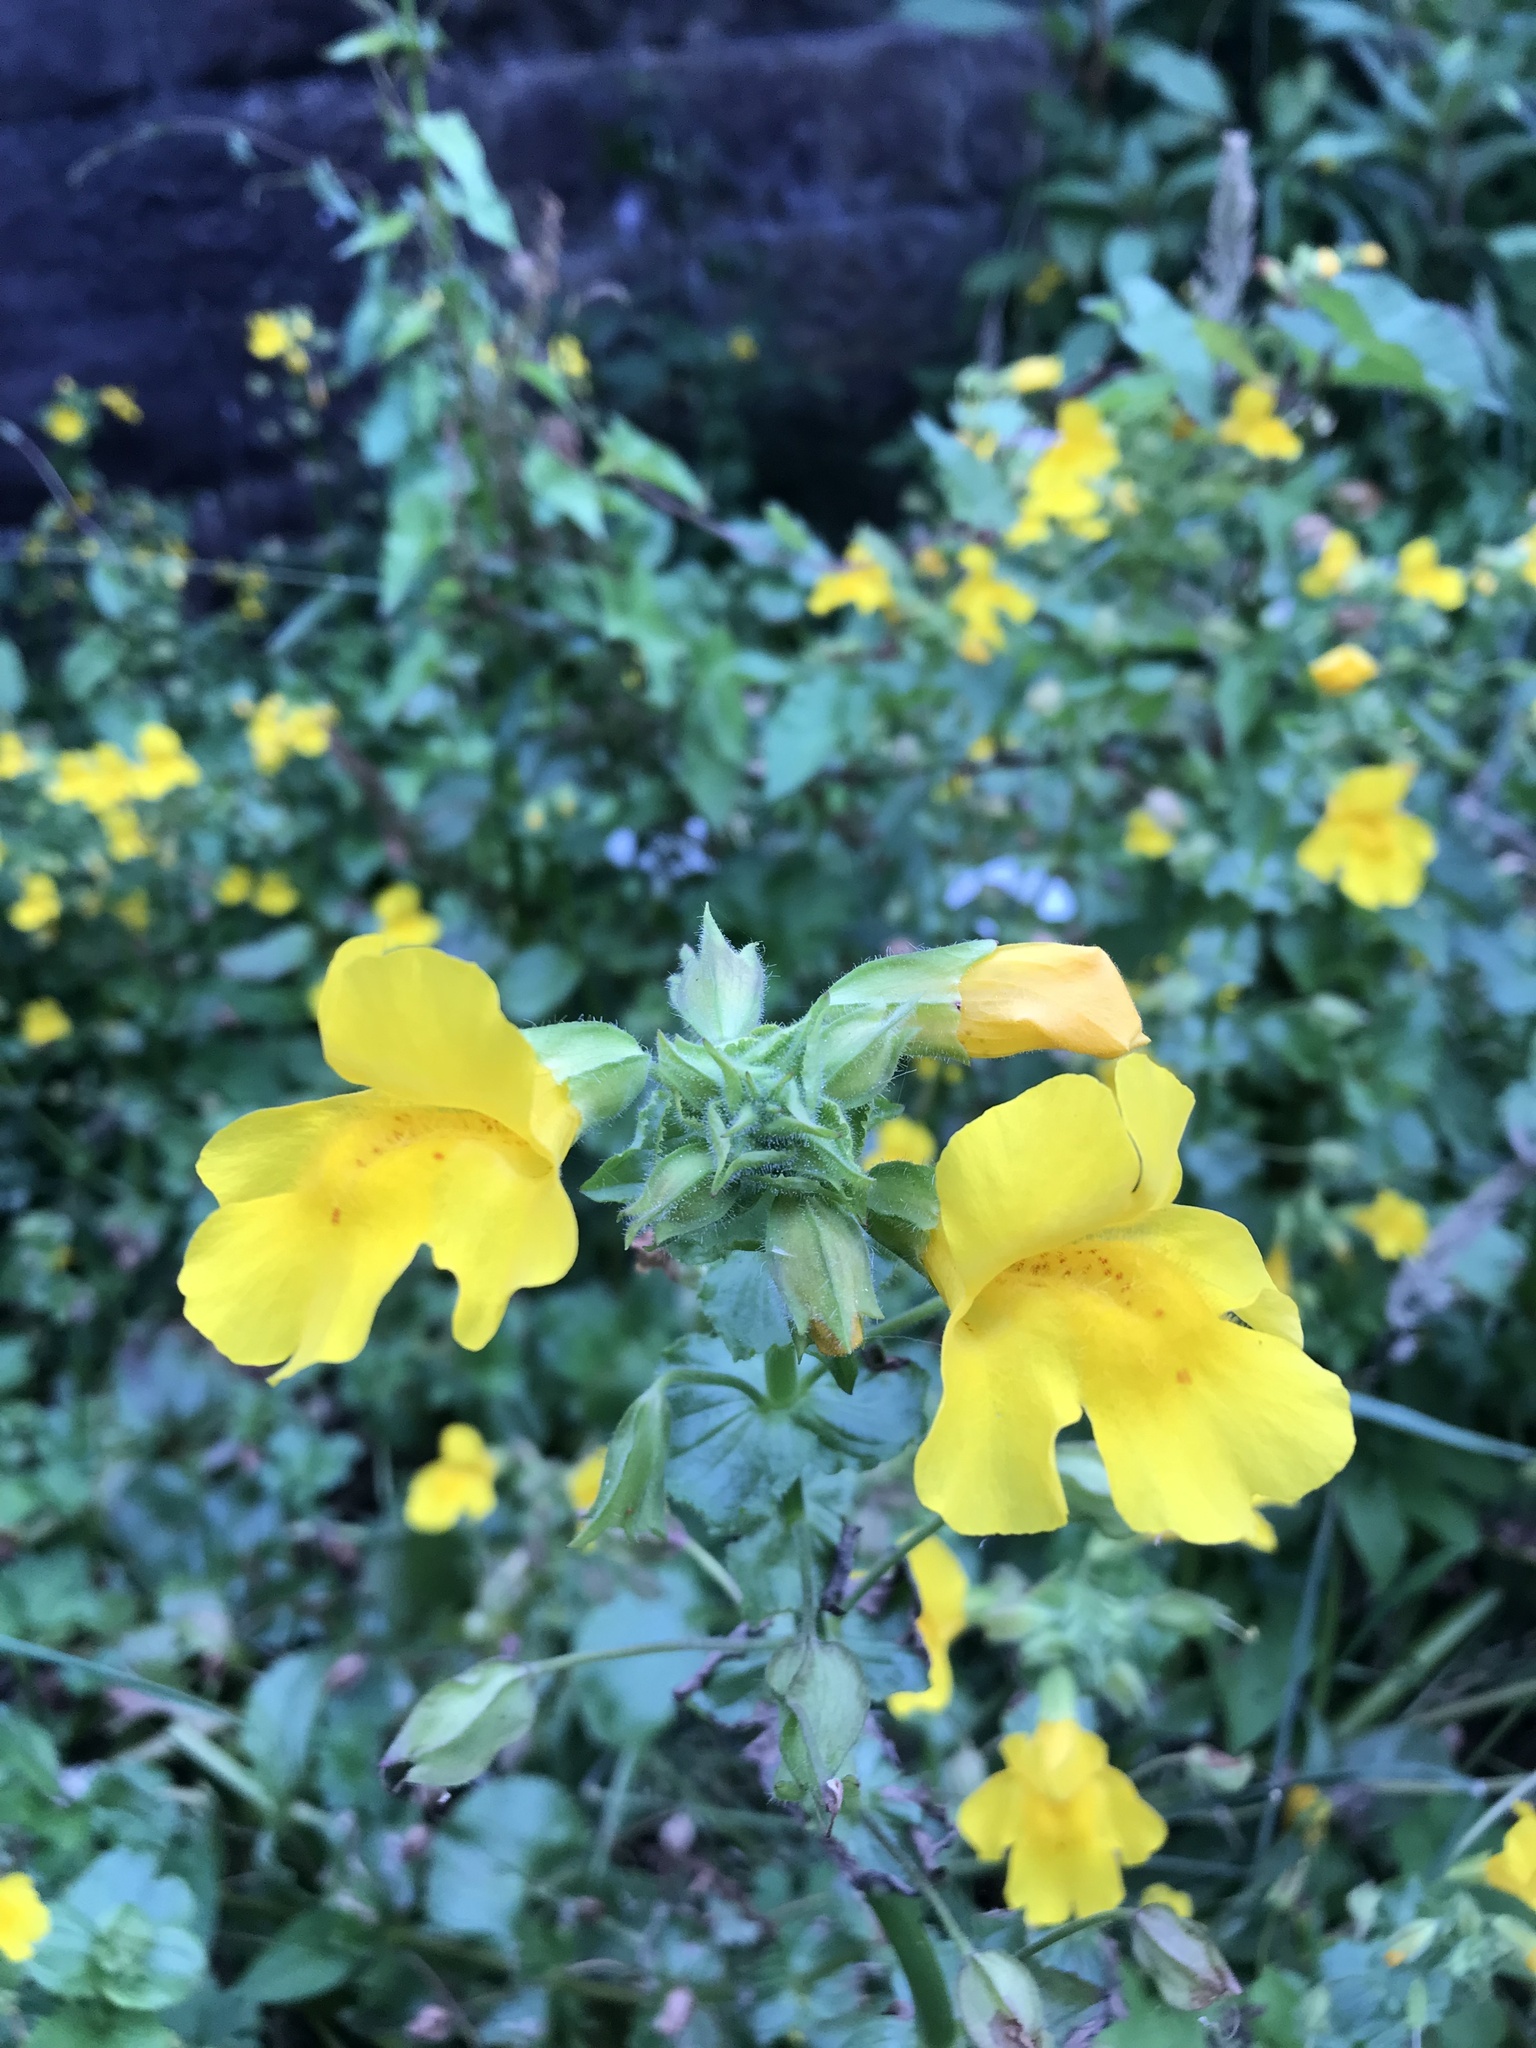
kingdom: Plantae
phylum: Tracheophyta
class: Magnoliopsida
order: Lamiales
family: Phrymaceae
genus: Erythranthe
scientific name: Erythranthe guttata
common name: Monkeyflower
